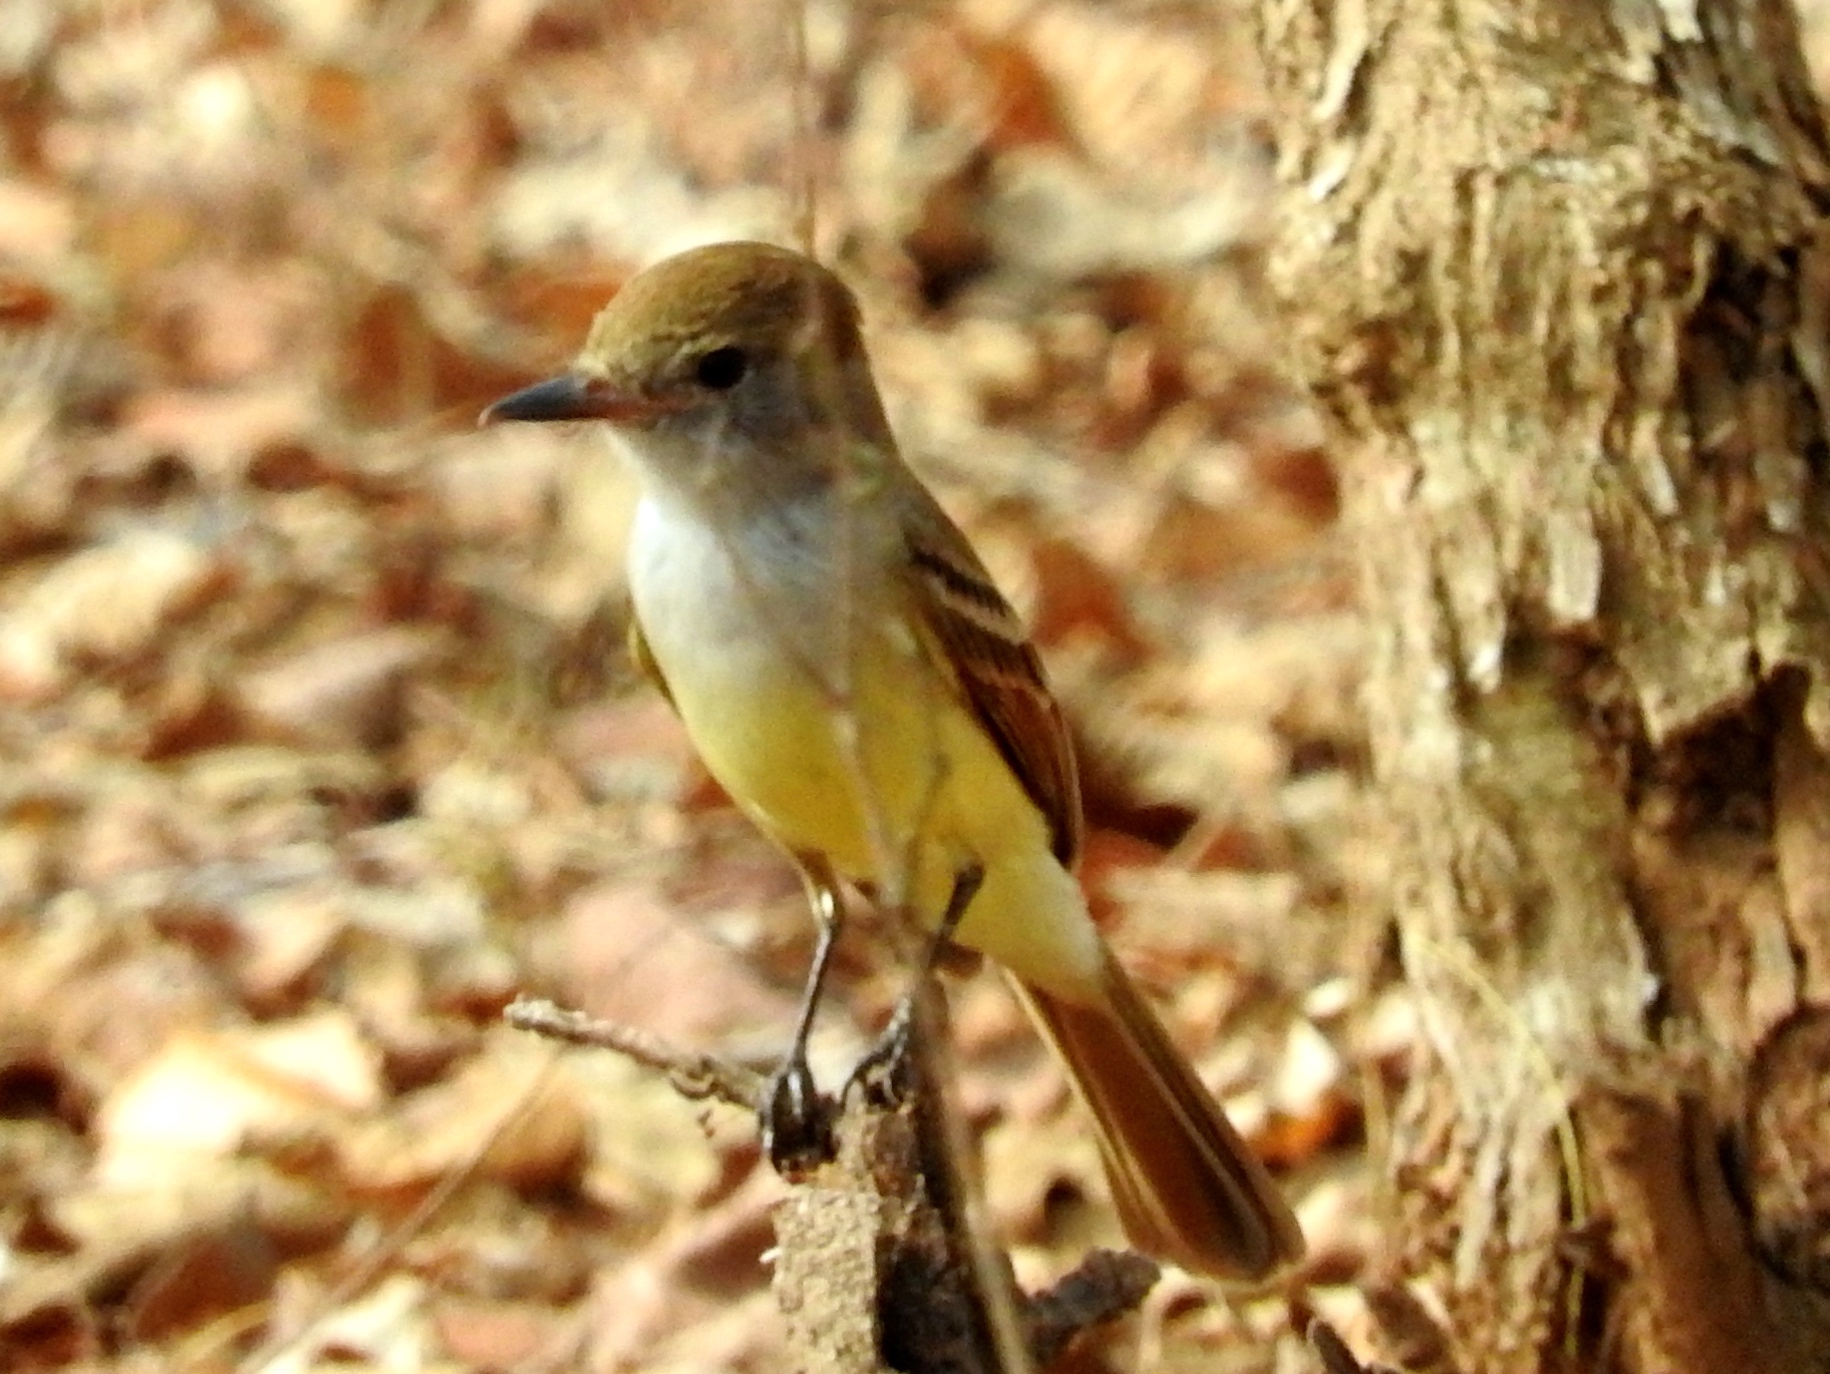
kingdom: Animalia
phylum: Chordata
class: Aves
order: Passeriformes
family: Tyrannidae
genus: Myiarchus
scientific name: Myiarchus
